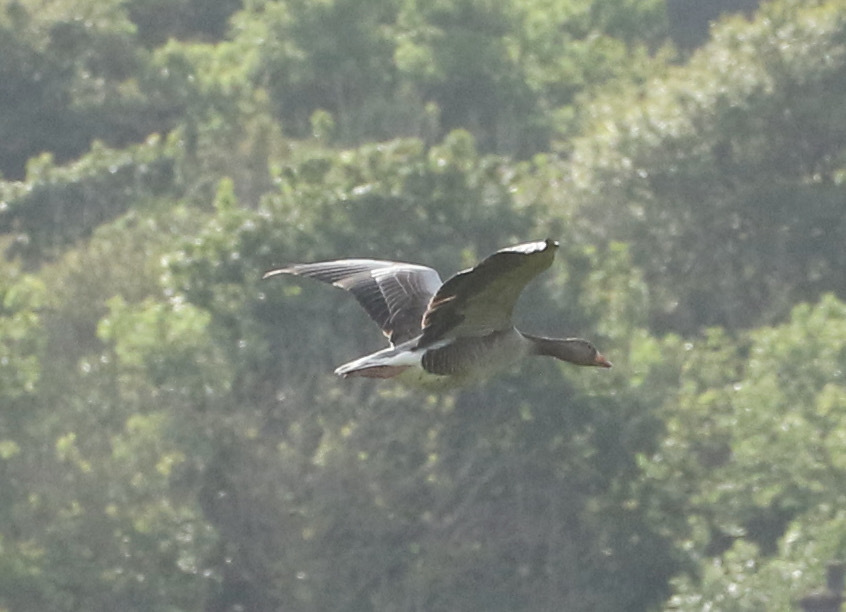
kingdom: Animalia
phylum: Chordata
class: Aves
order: Anseriformes
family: Anatidae
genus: Anser
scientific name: Anser anser
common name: Greylag goose
